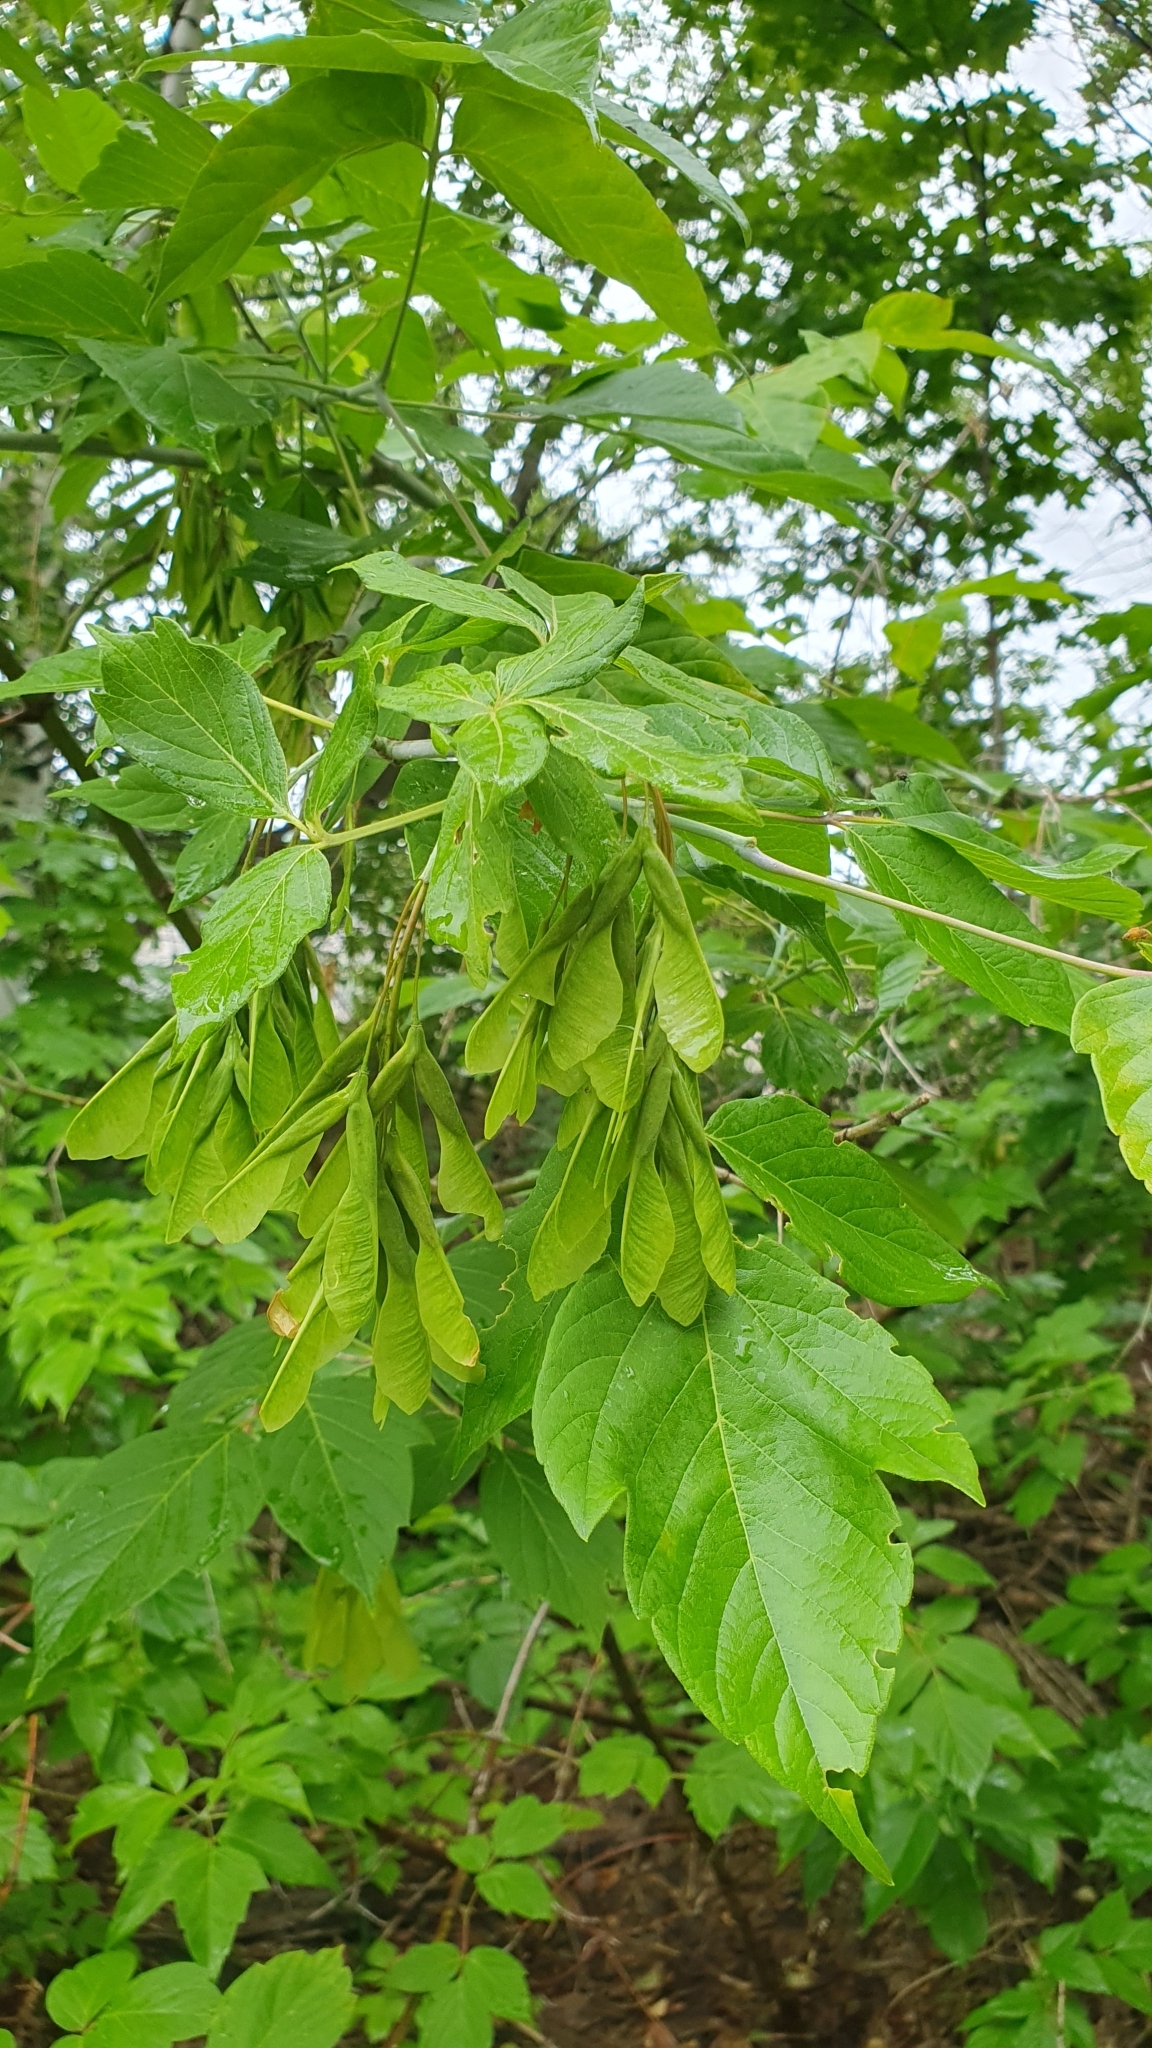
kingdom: Plantae
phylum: Tracheophyta
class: Magnoliopsida
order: Sapindales
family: Sapindaceae
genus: Acer
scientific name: Acer negundo
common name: Ashleaf maple
